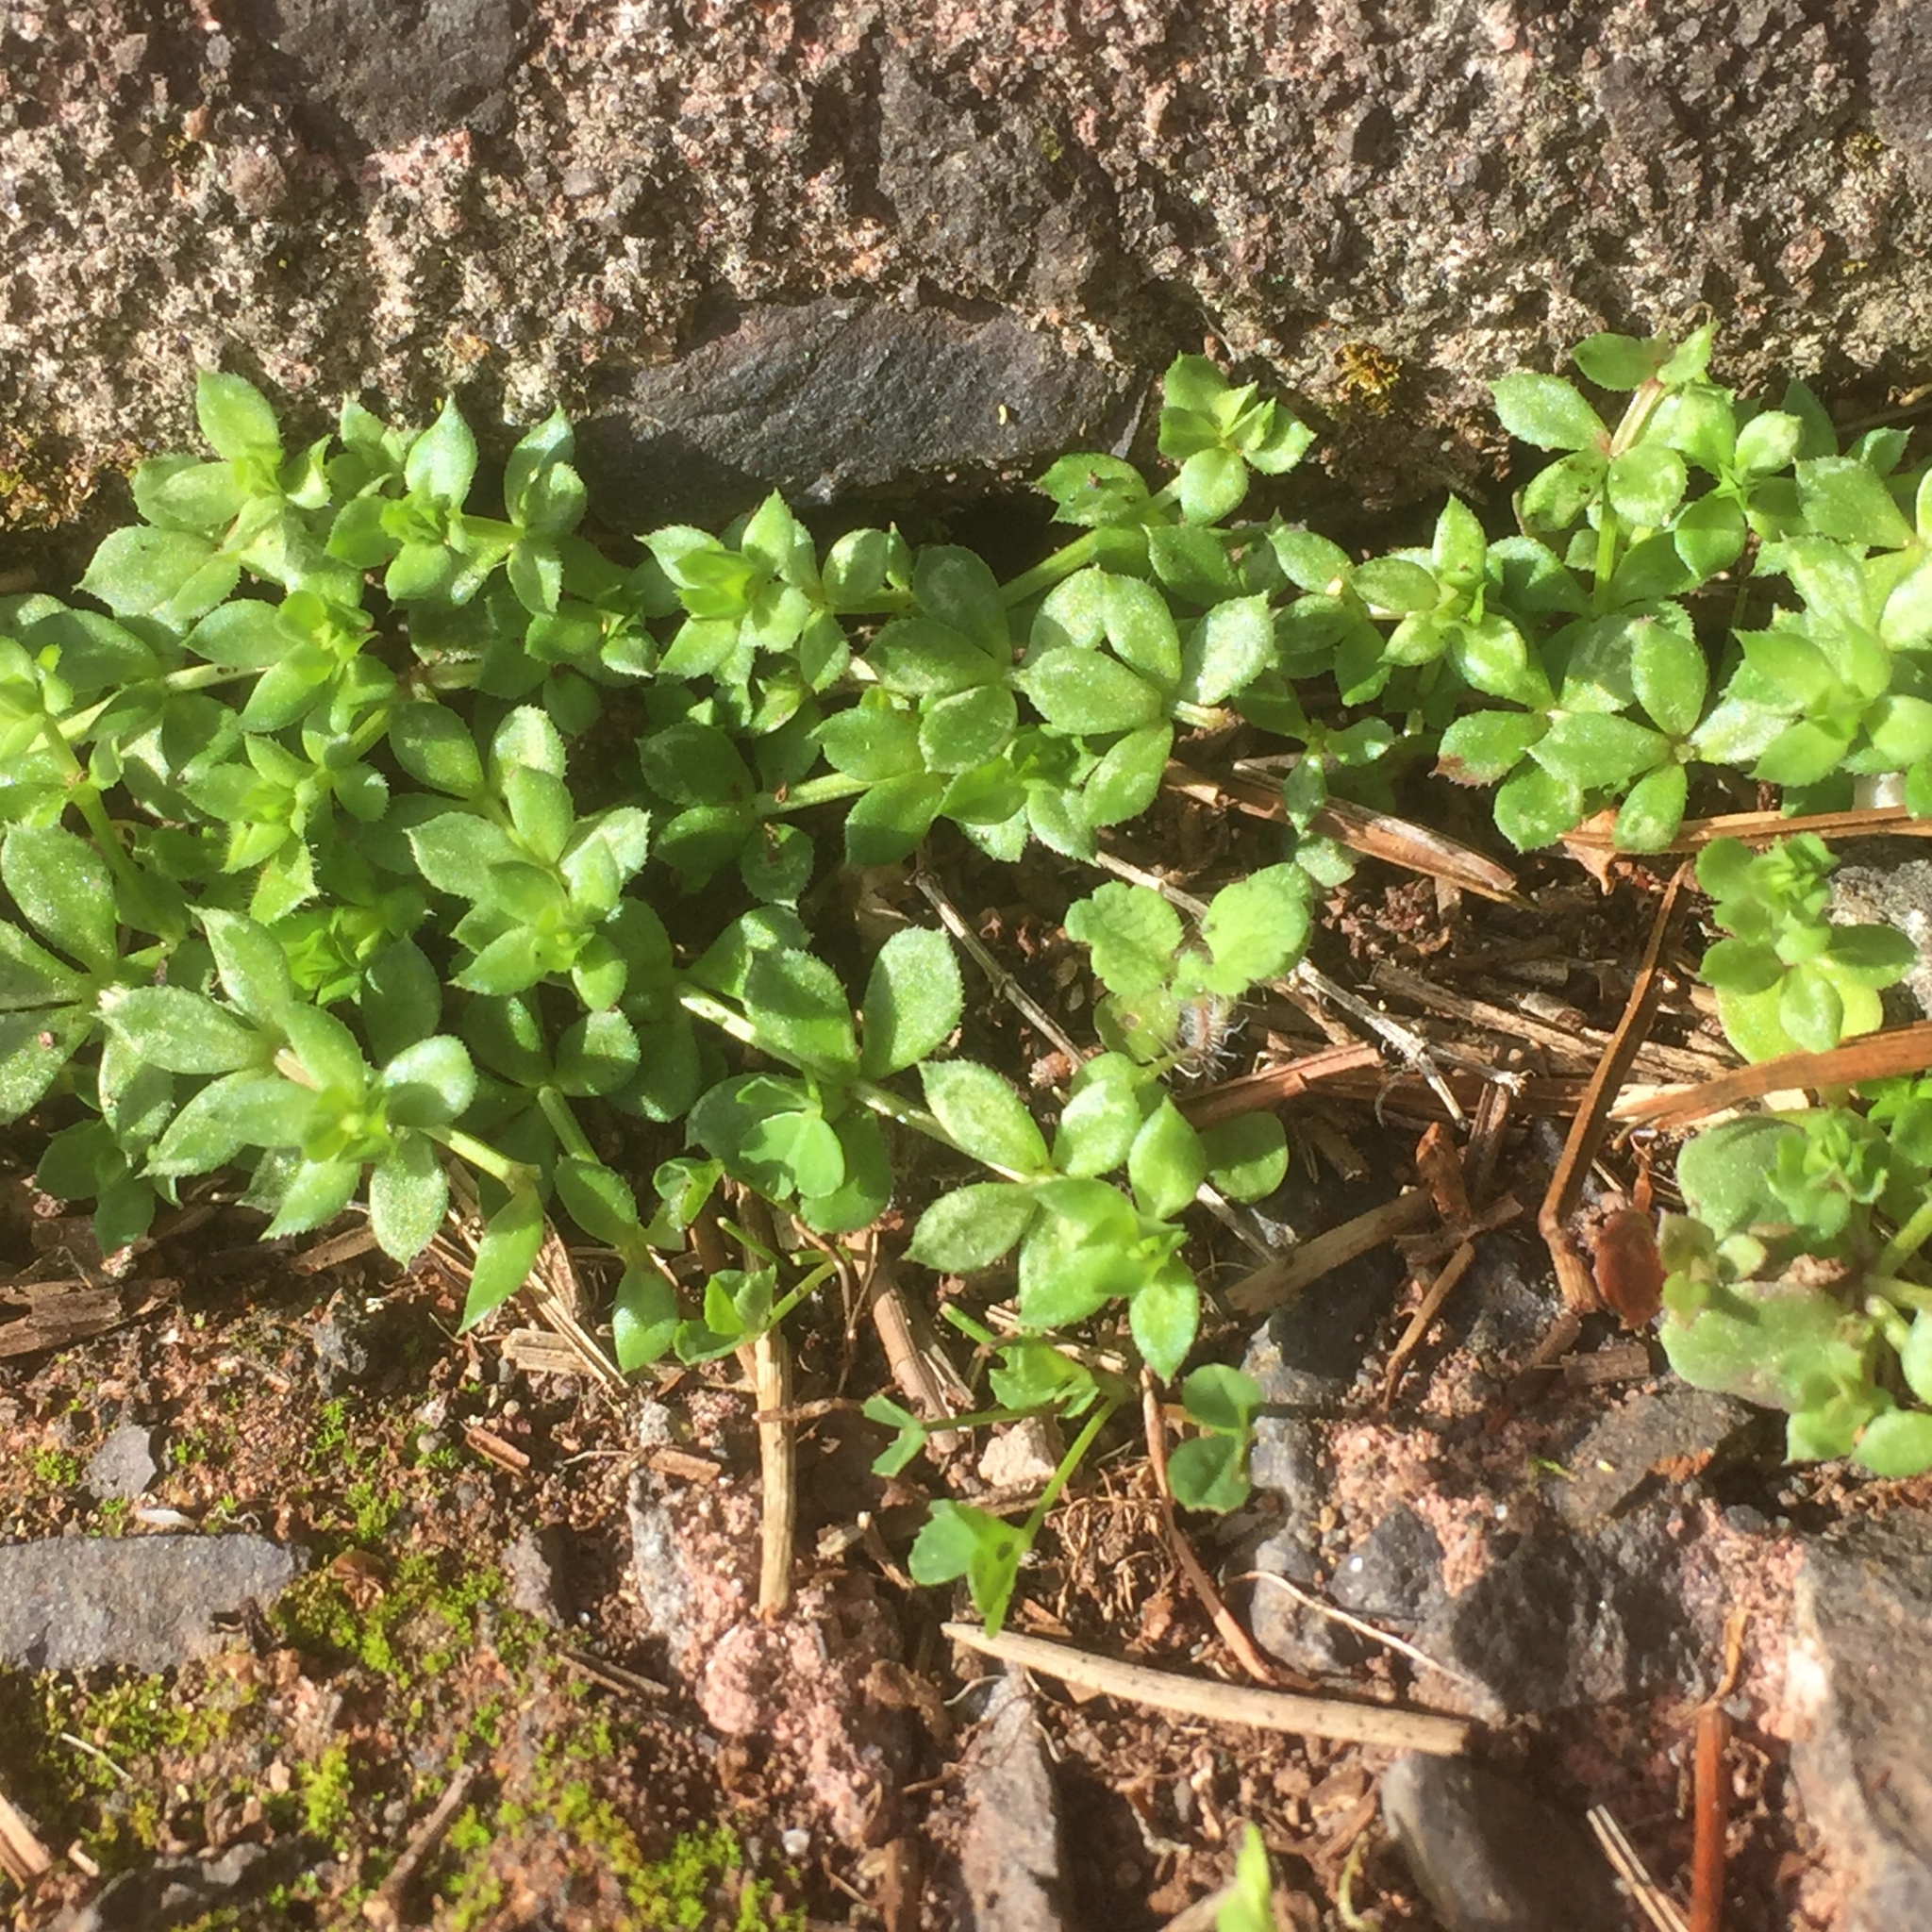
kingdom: Plantae
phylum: Tracheophyta
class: Magnoliopsida
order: Gentianales
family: Rubiaceae
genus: Sherardia
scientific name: Sherardia arvensis
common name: Field madder
